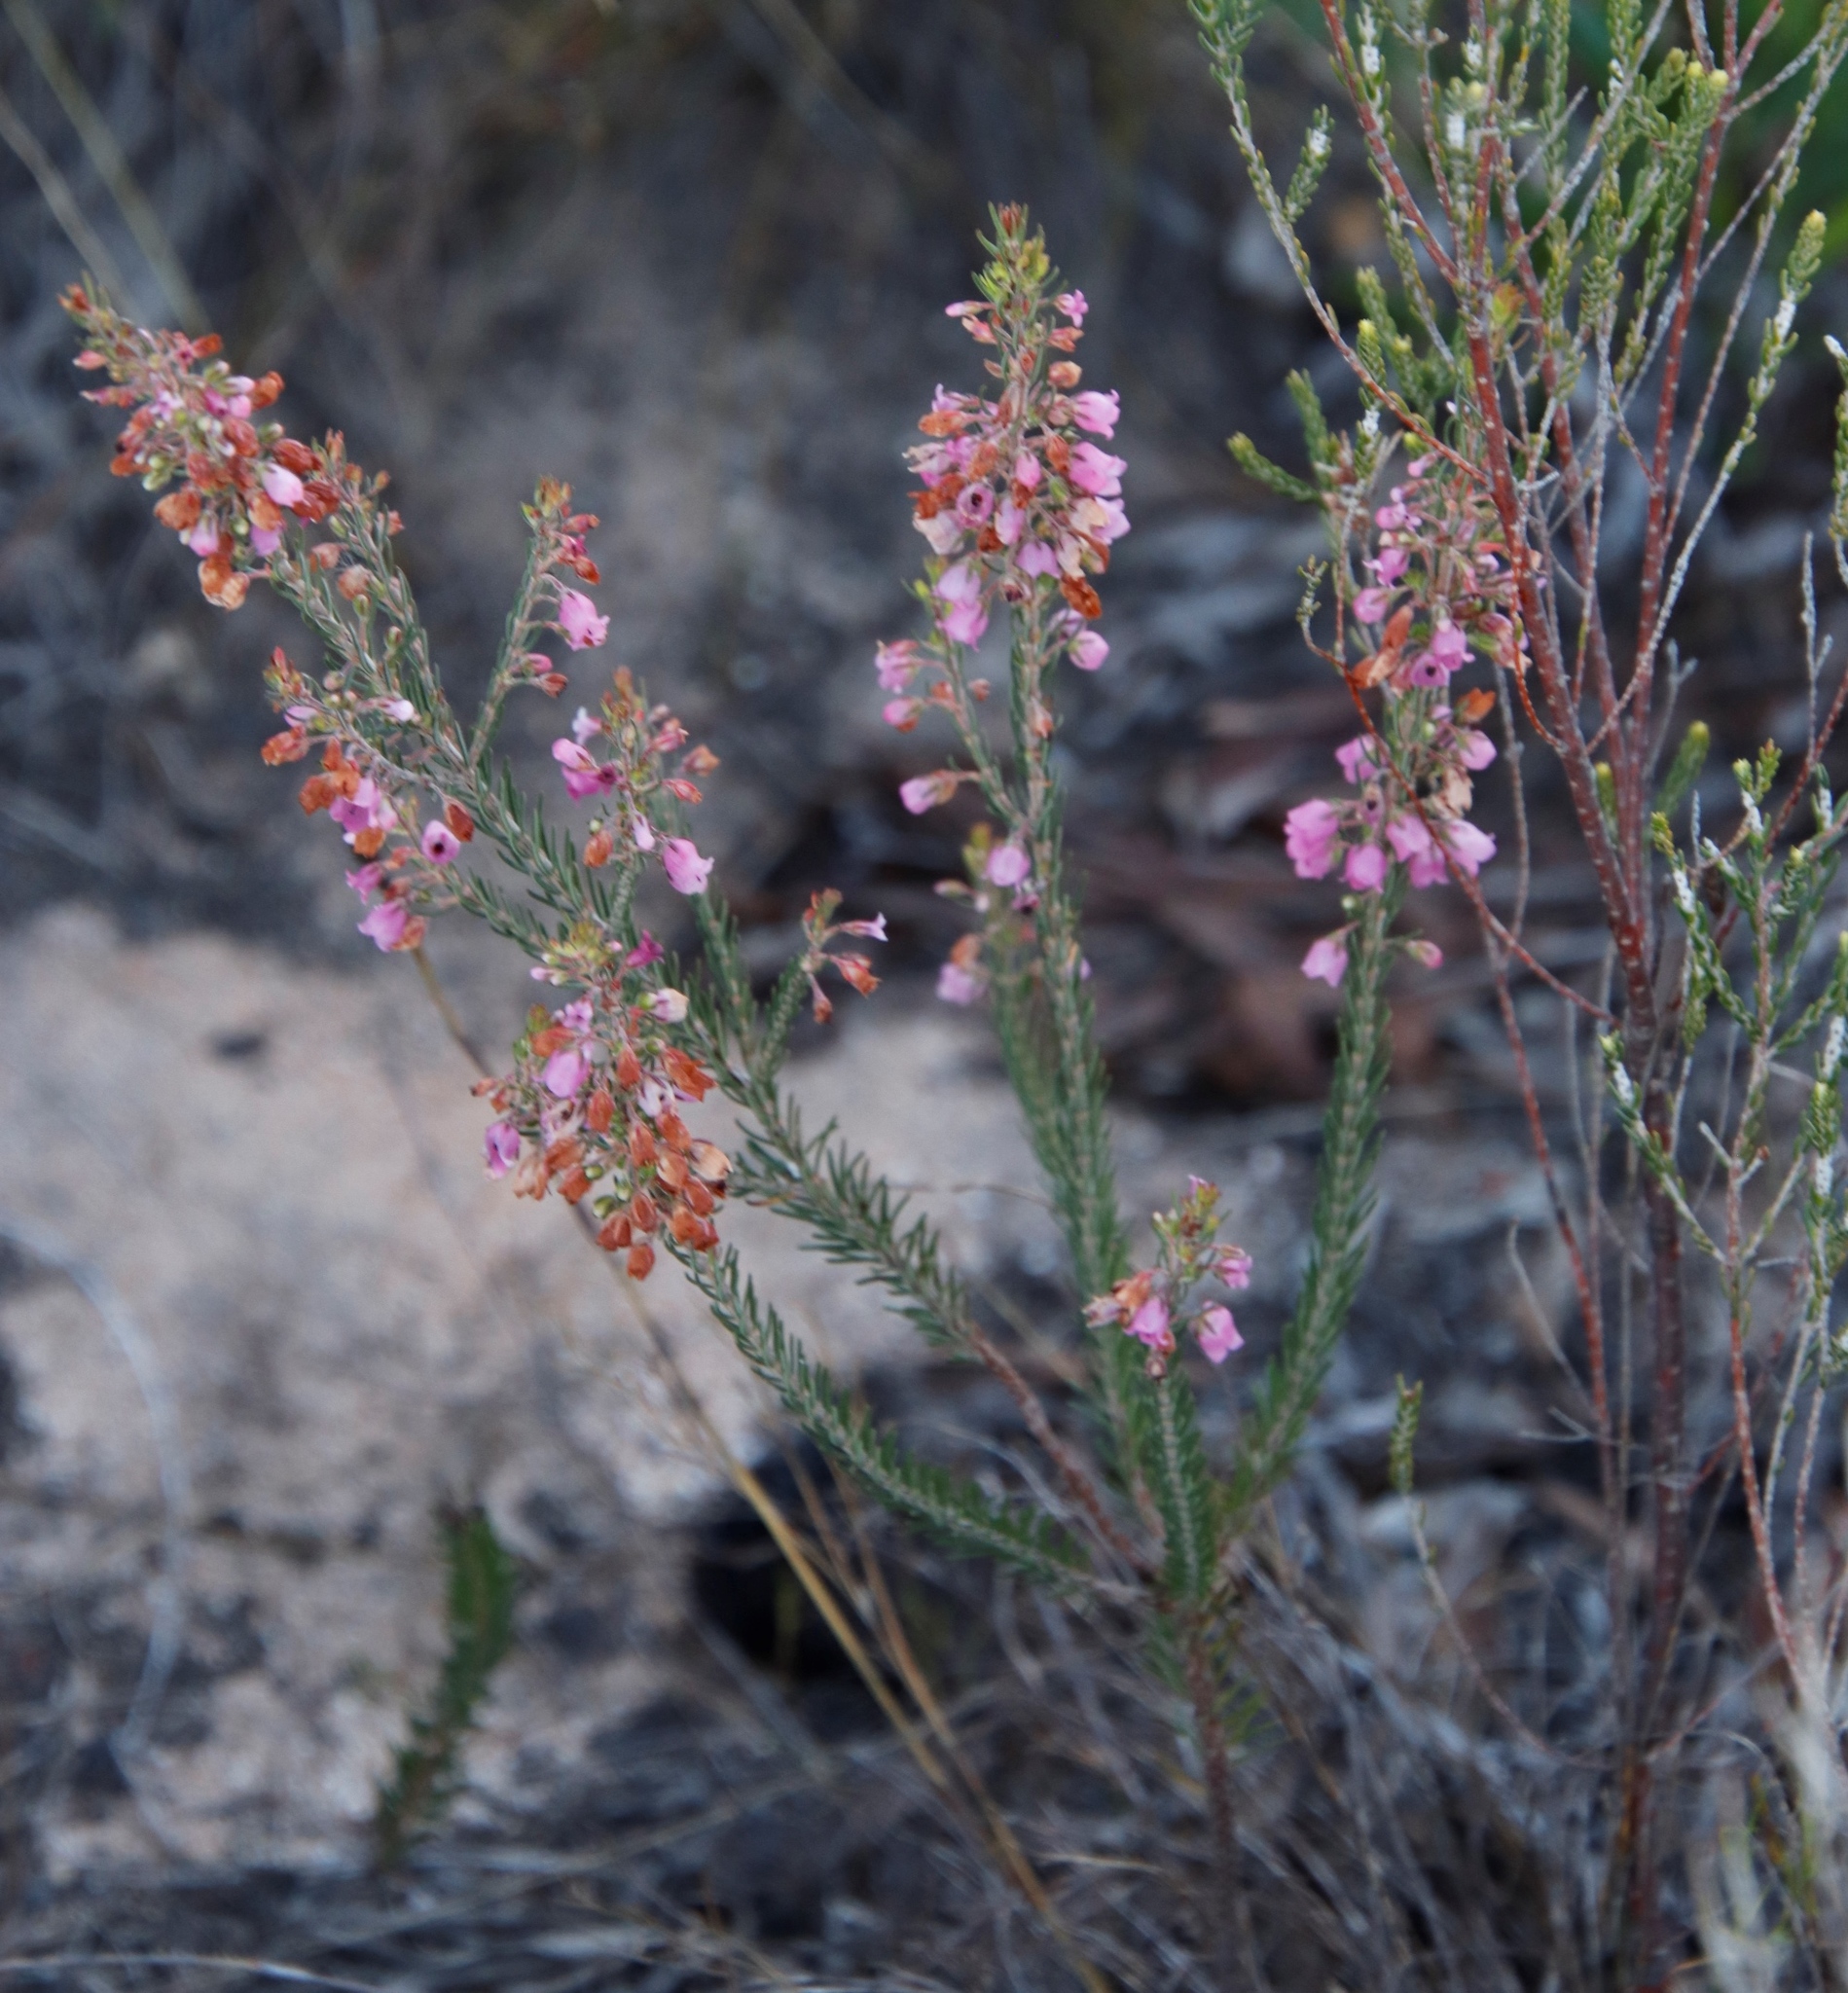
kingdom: Plantae
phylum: Tracheophyta
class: Magnoliopsida
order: Ericales
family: Ericaceae
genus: Erica
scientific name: Erica viscaria
